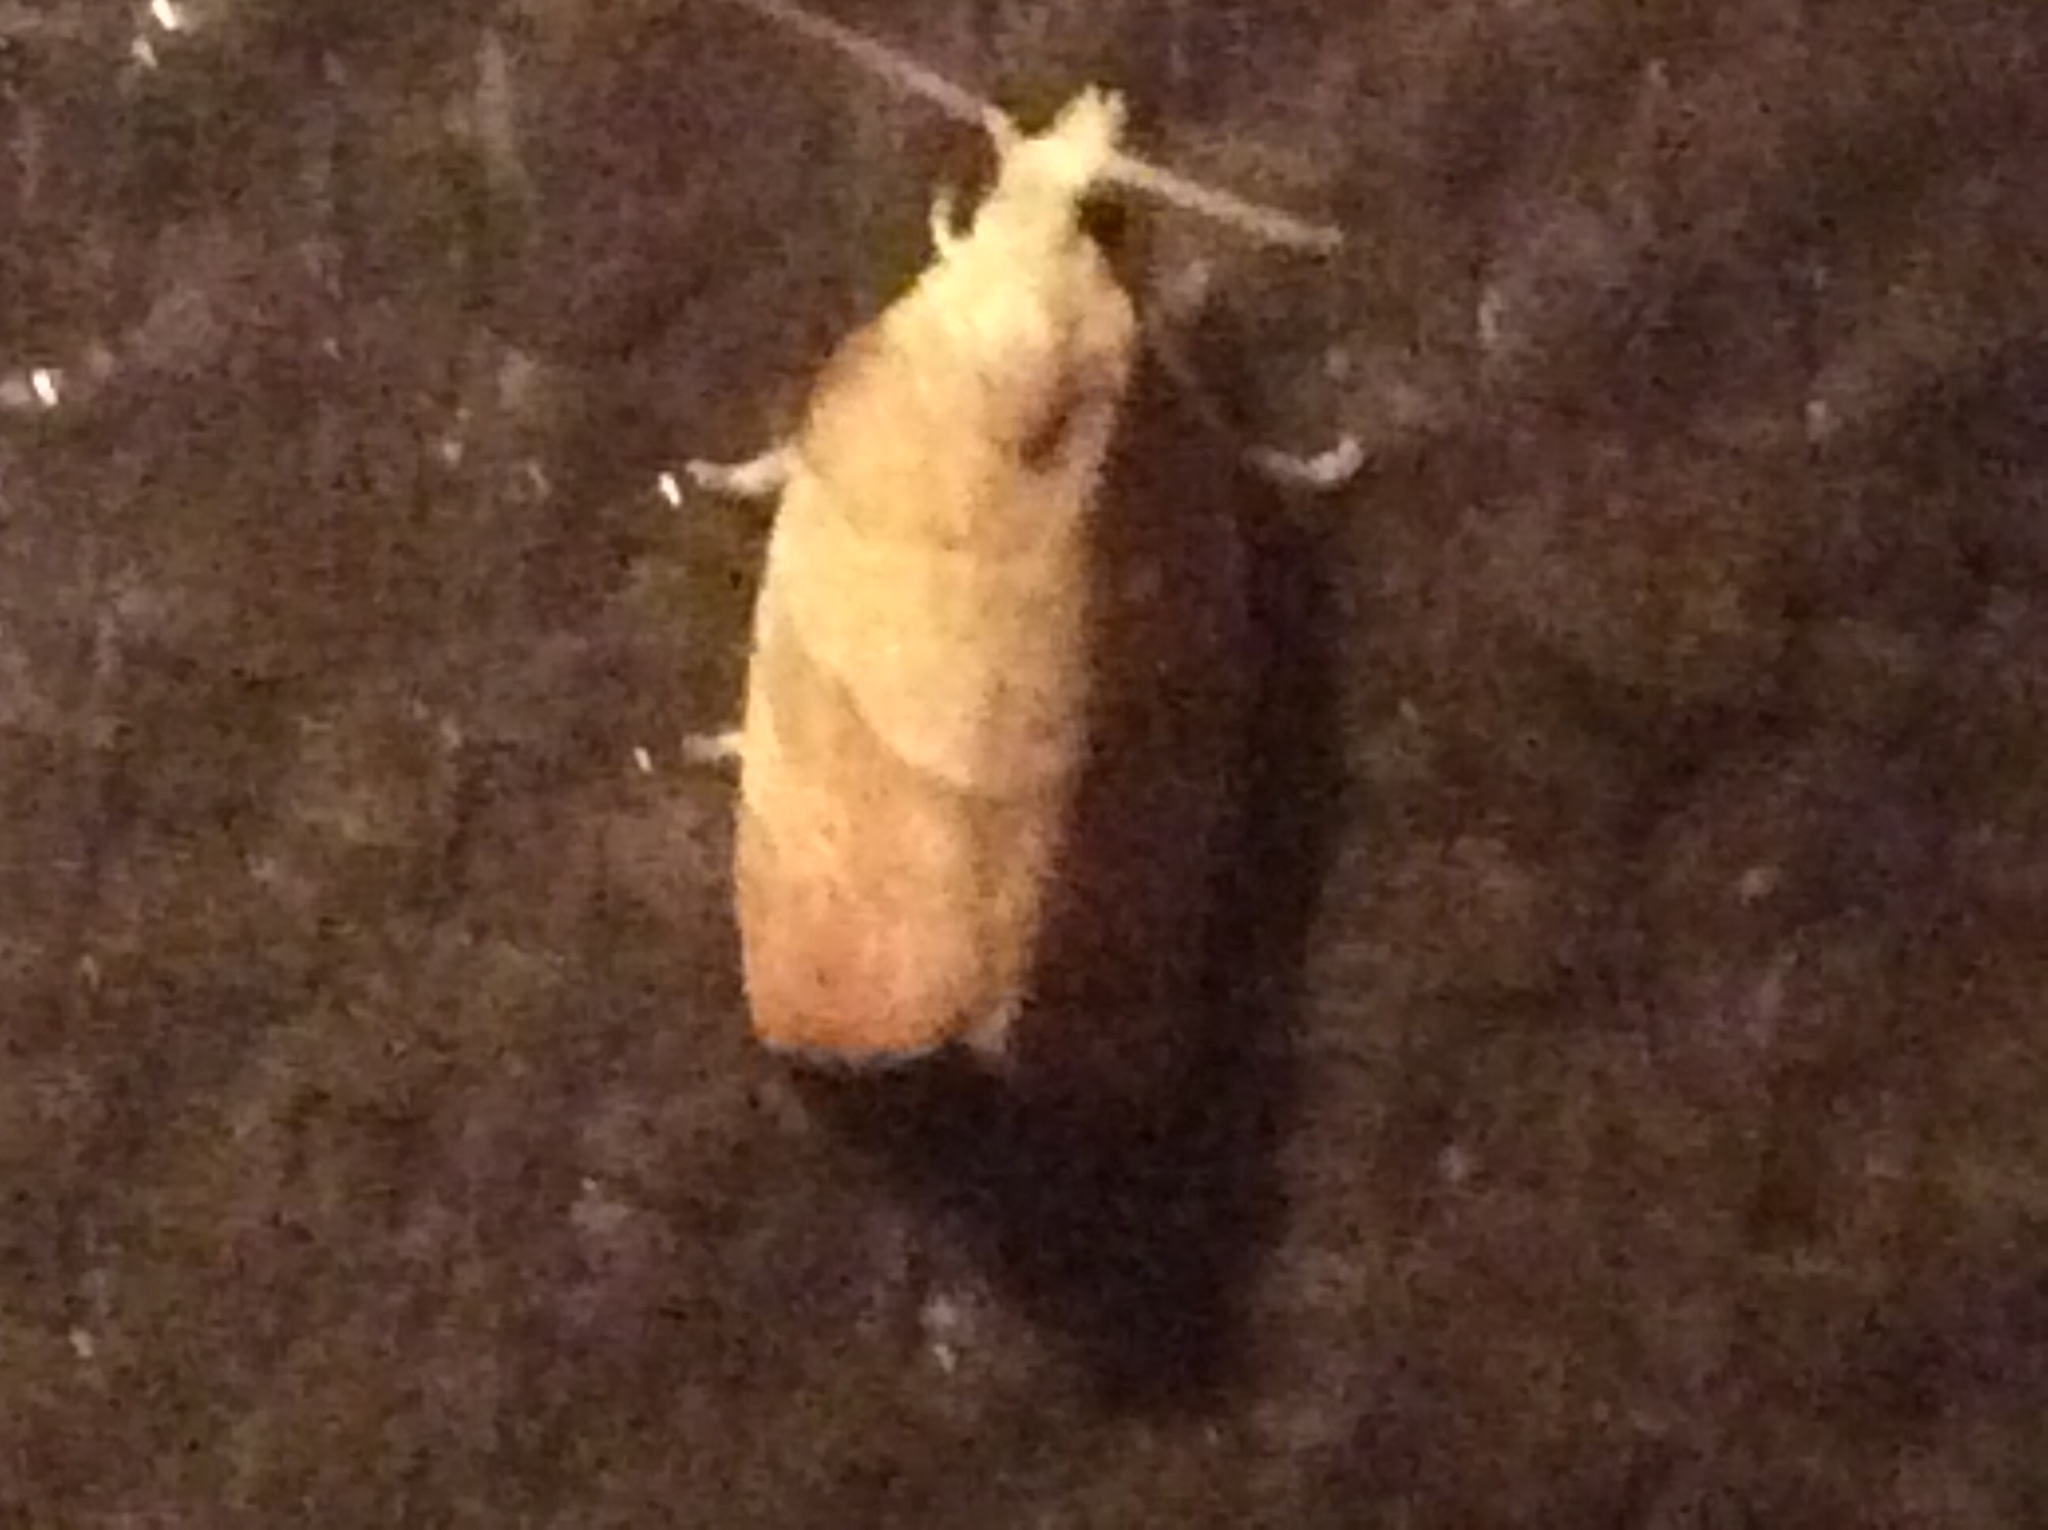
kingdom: Animalia
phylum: Arthropoda
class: Insecta
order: Lepidoptera
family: Tortricidae
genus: Pandemis
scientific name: Pandemis limitata
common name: Three-lined leafroller moth
